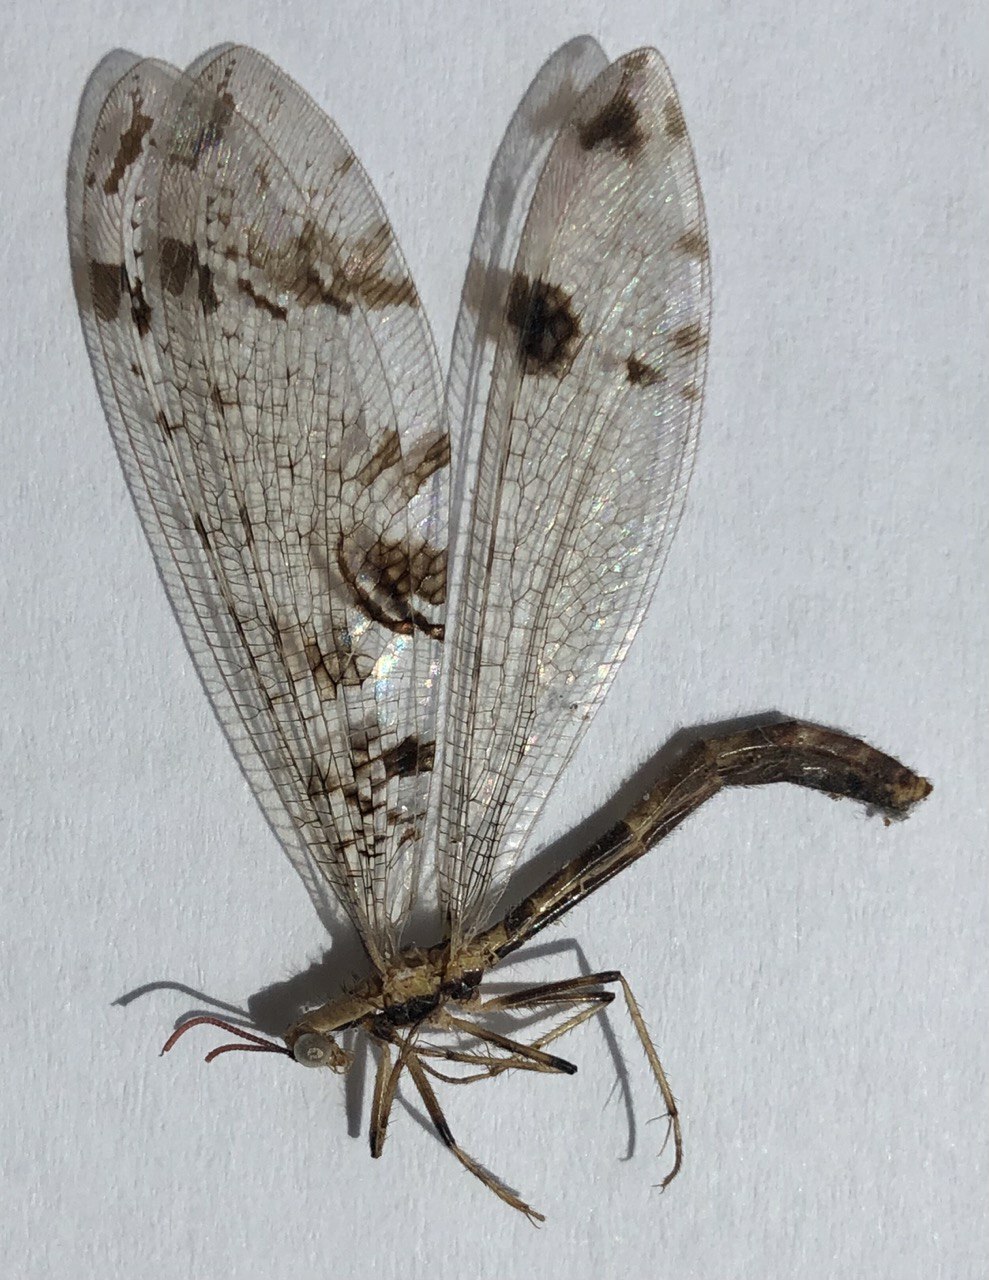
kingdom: Animalia
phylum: Arthropoda
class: Insecta
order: Neuroptera
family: Myrmeleontidae
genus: Dendroleon
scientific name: Dendroleon pantherinus
